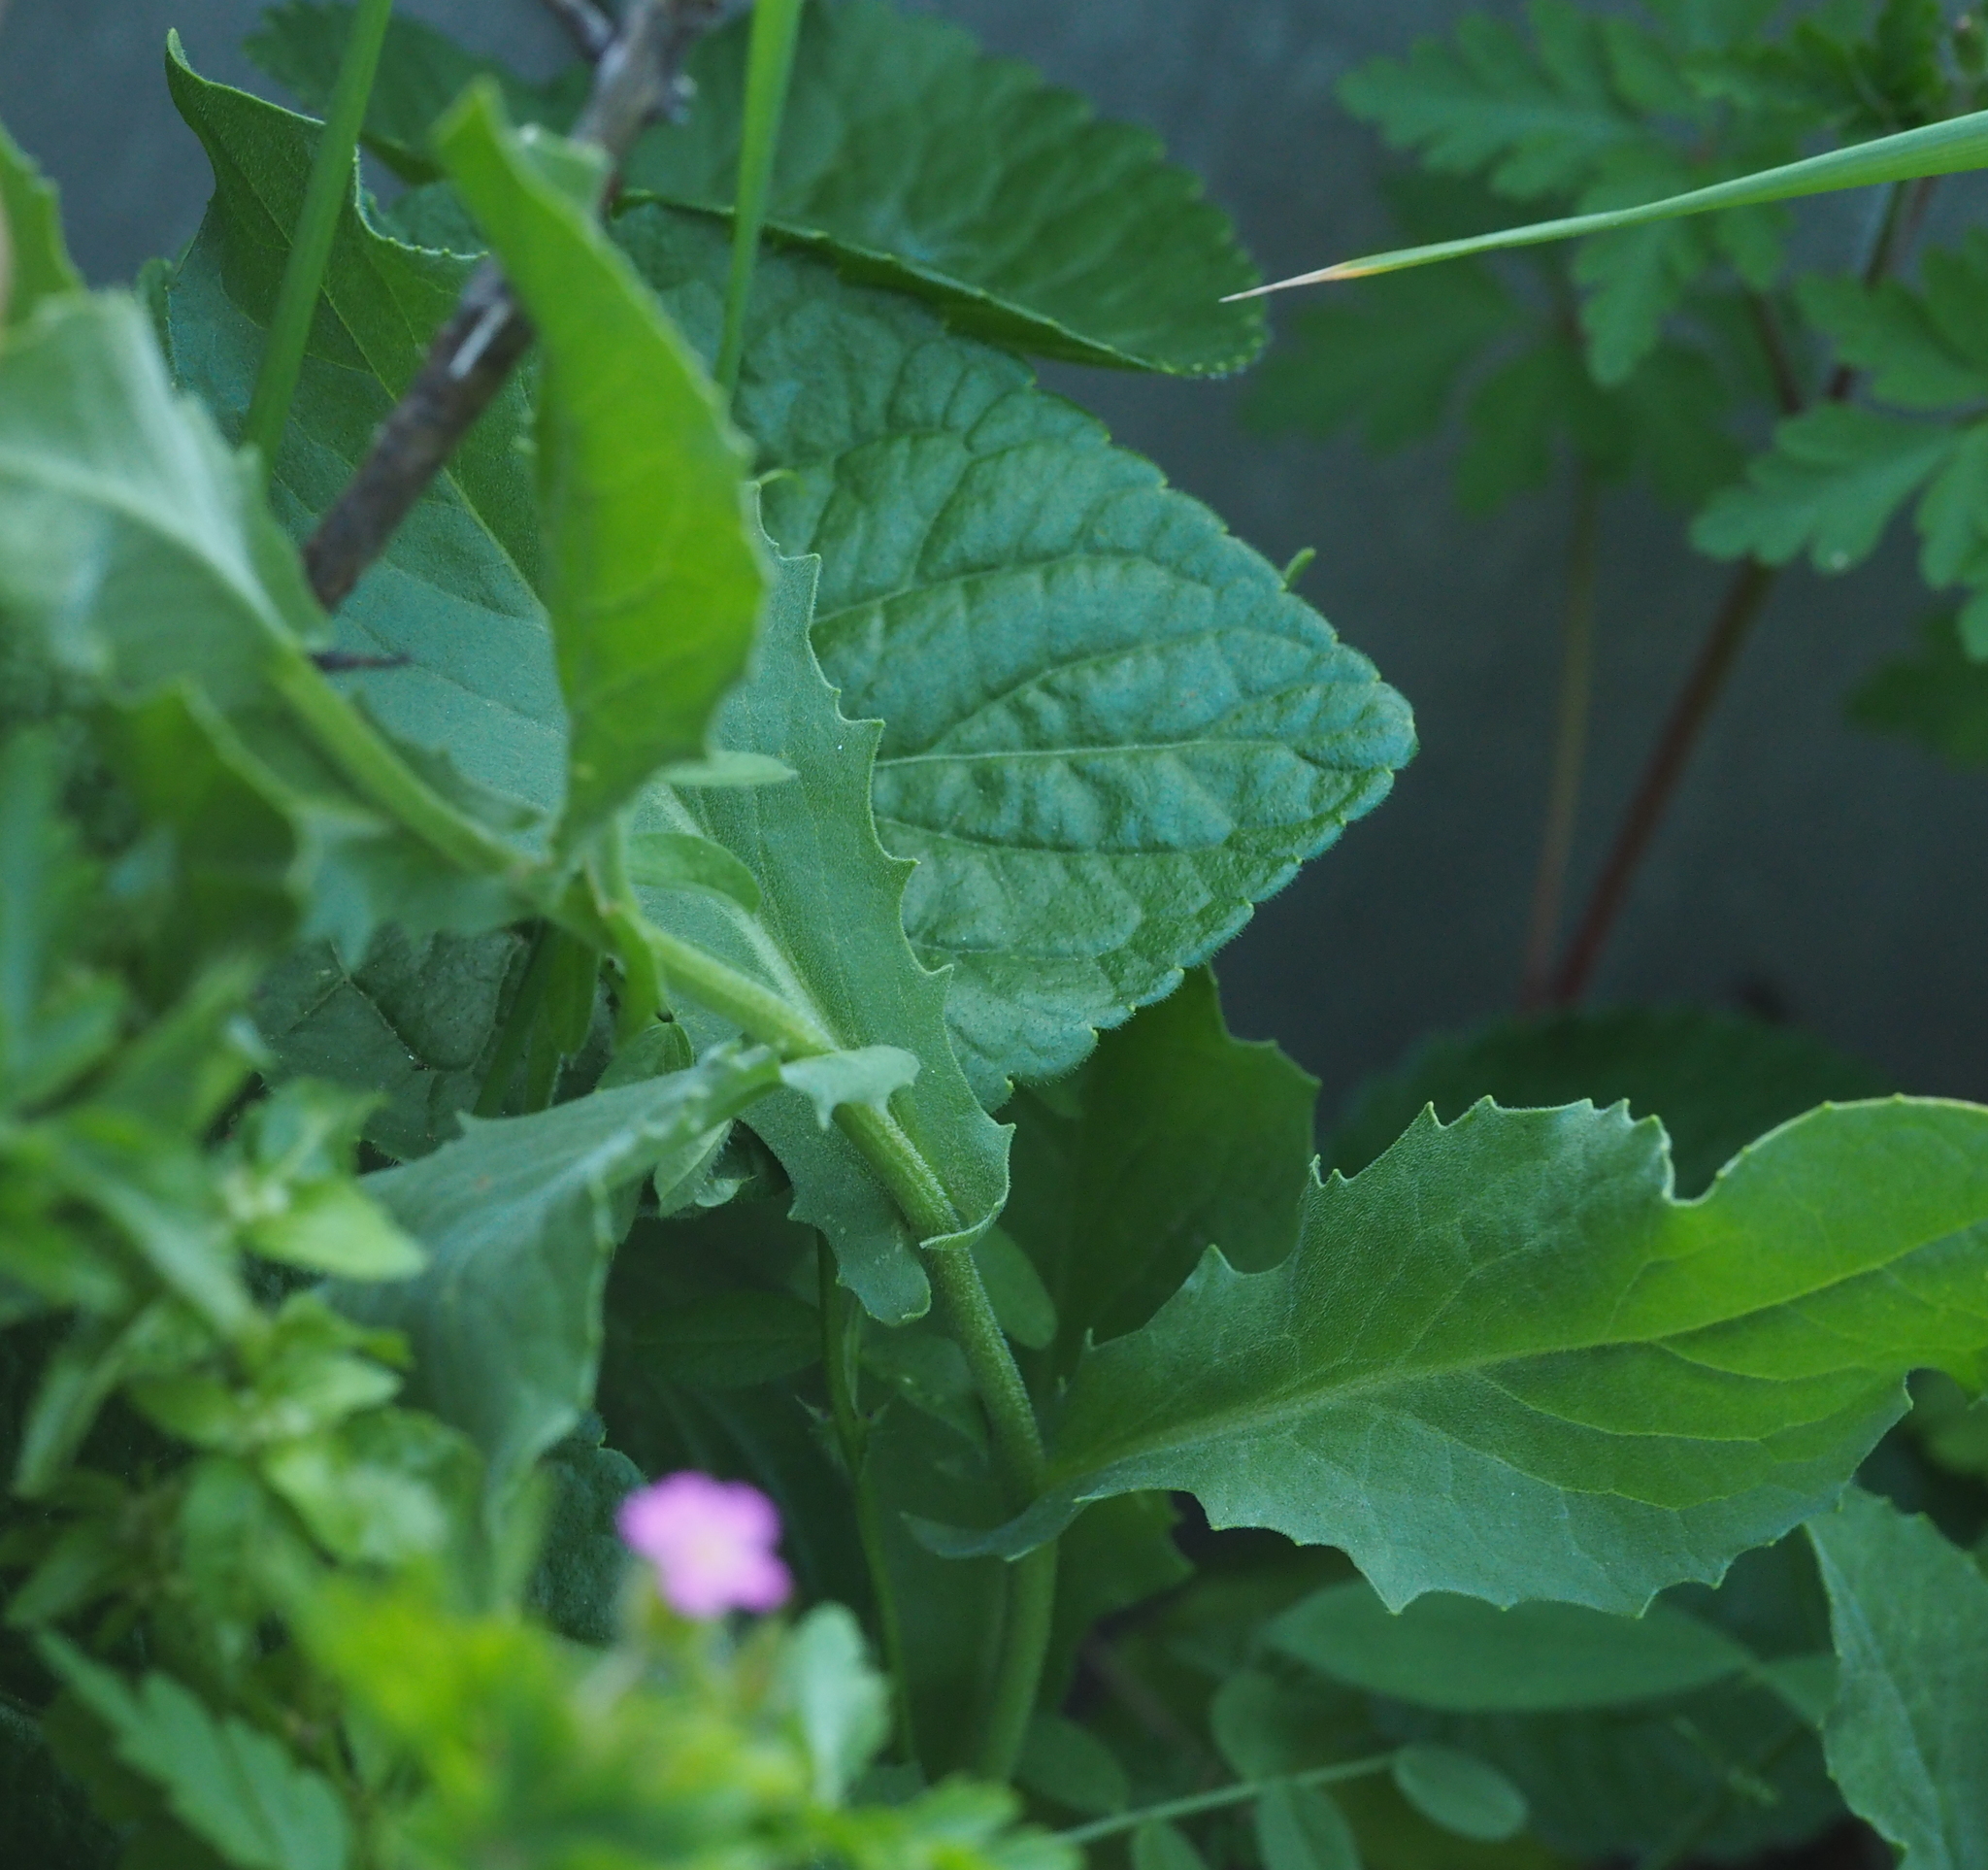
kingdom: Plantae
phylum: Tracheophyta
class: Magnoliopsida
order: Brassicales
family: Brassicaceae
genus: Lepidium
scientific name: Lepidium draba
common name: Hoary cress
